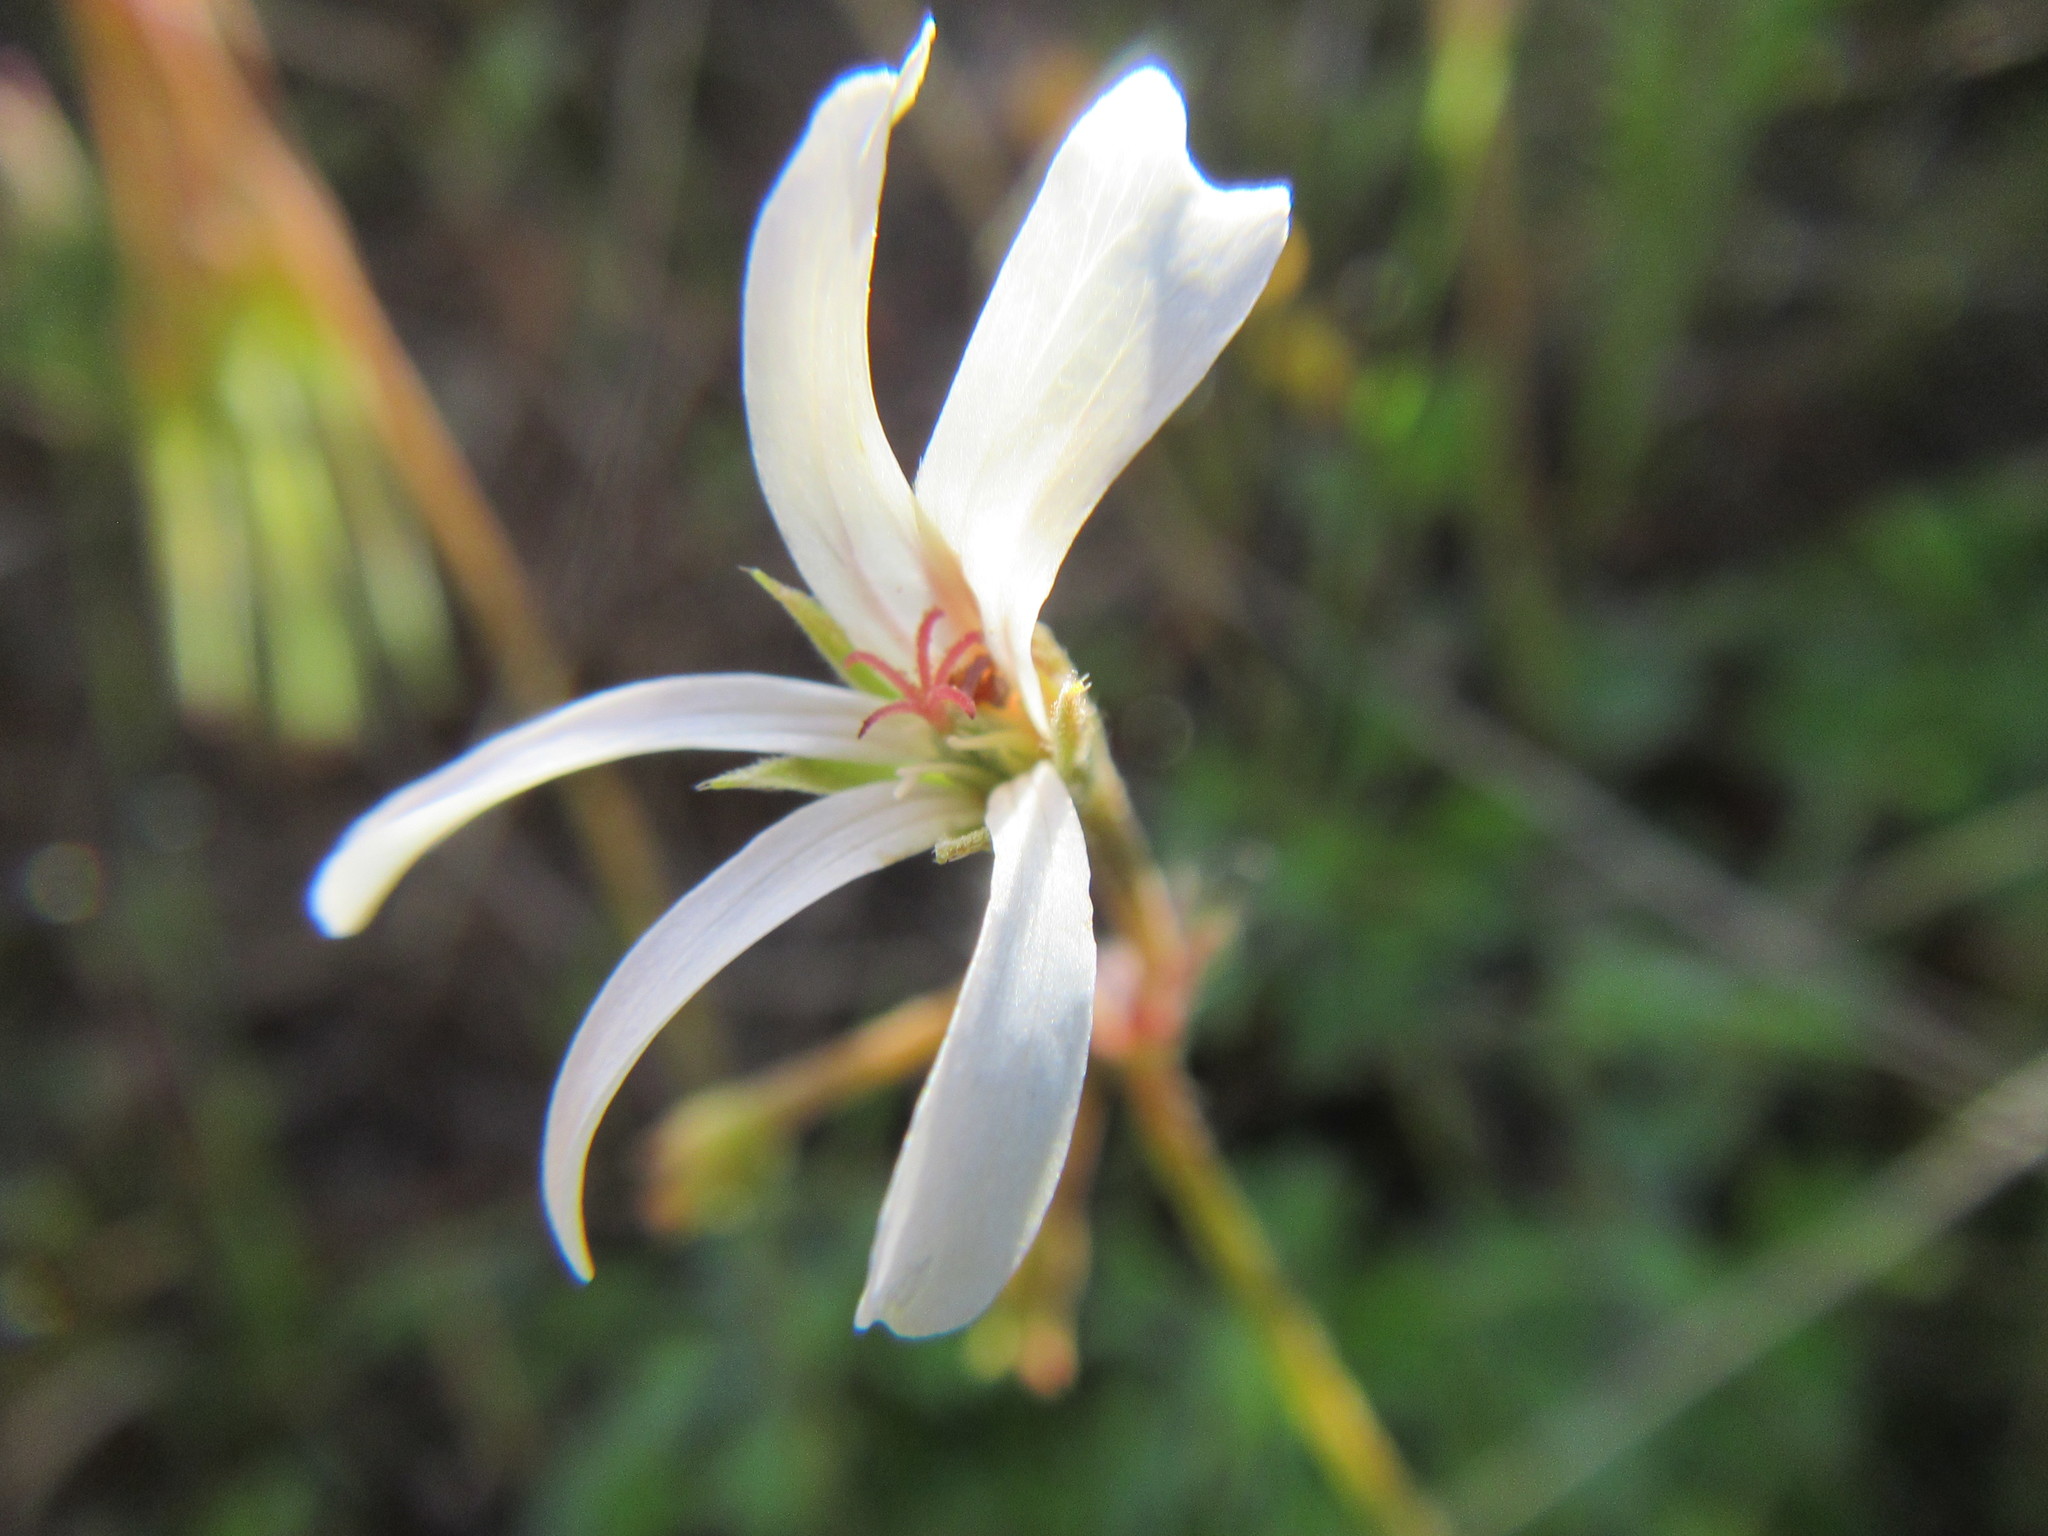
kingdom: Plantae
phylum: Tracheophyta
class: Magnoliopsida
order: Geraniales
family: Geraniaceae
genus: Pelargonium
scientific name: Pelargonium alchemilloides
